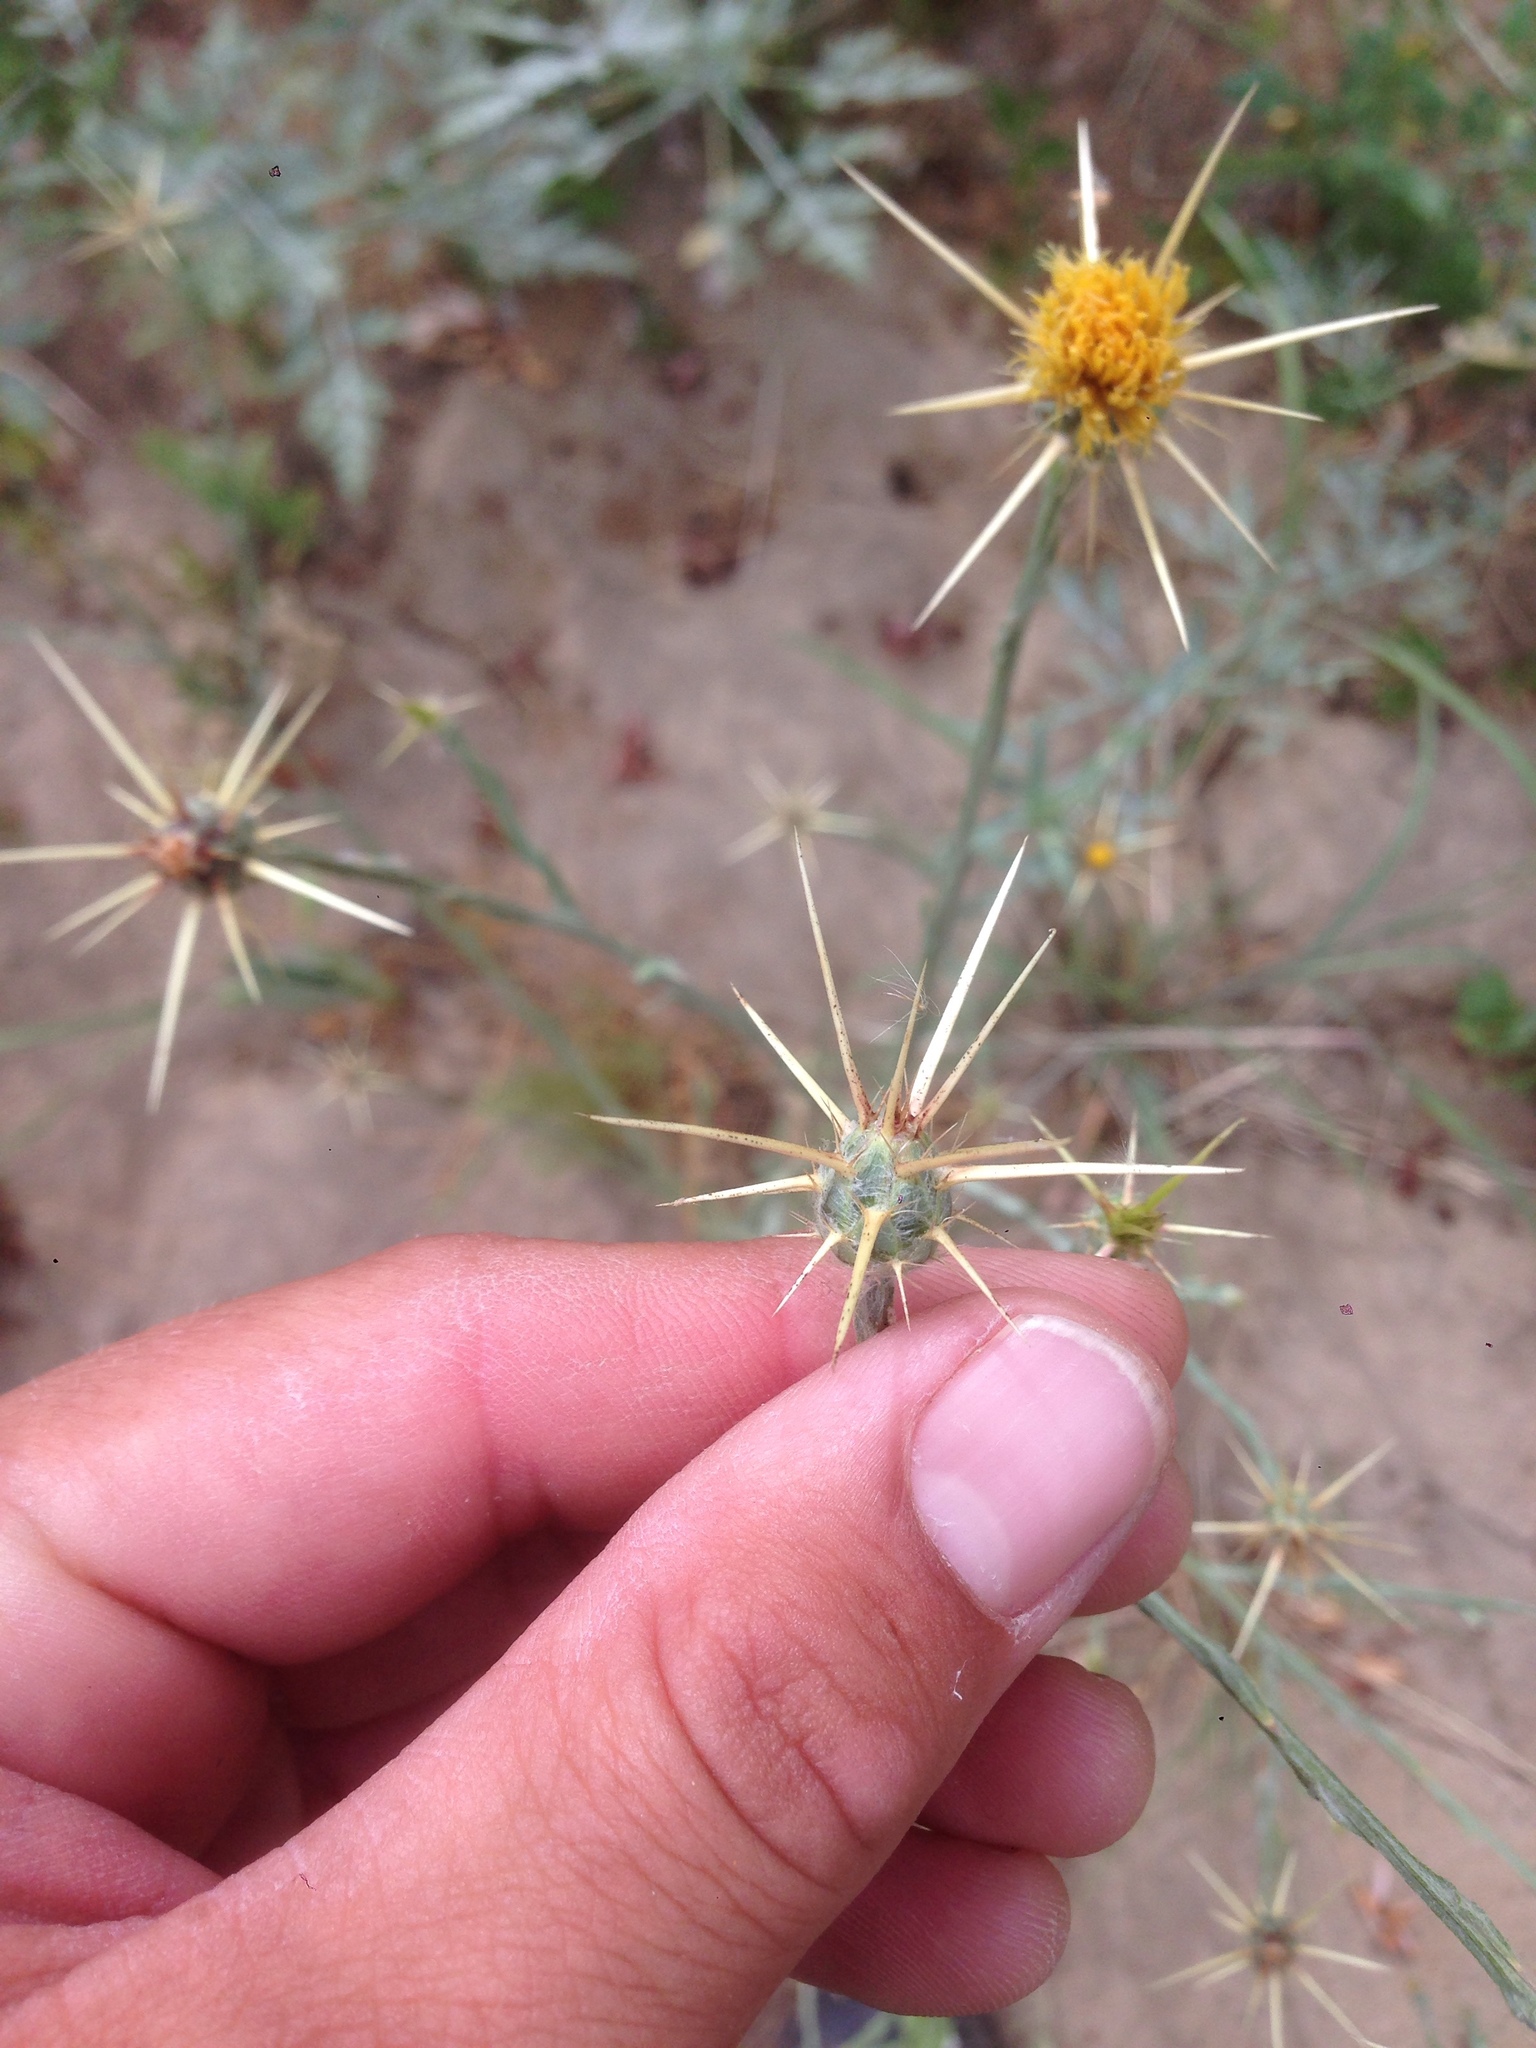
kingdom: Plantae
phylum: Tracheophyta
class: Magnoliopsida
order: Asterales
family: Asteraceae
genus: Centaurea
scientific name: Centaurea solstitialis
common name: Yellow star-thistle
